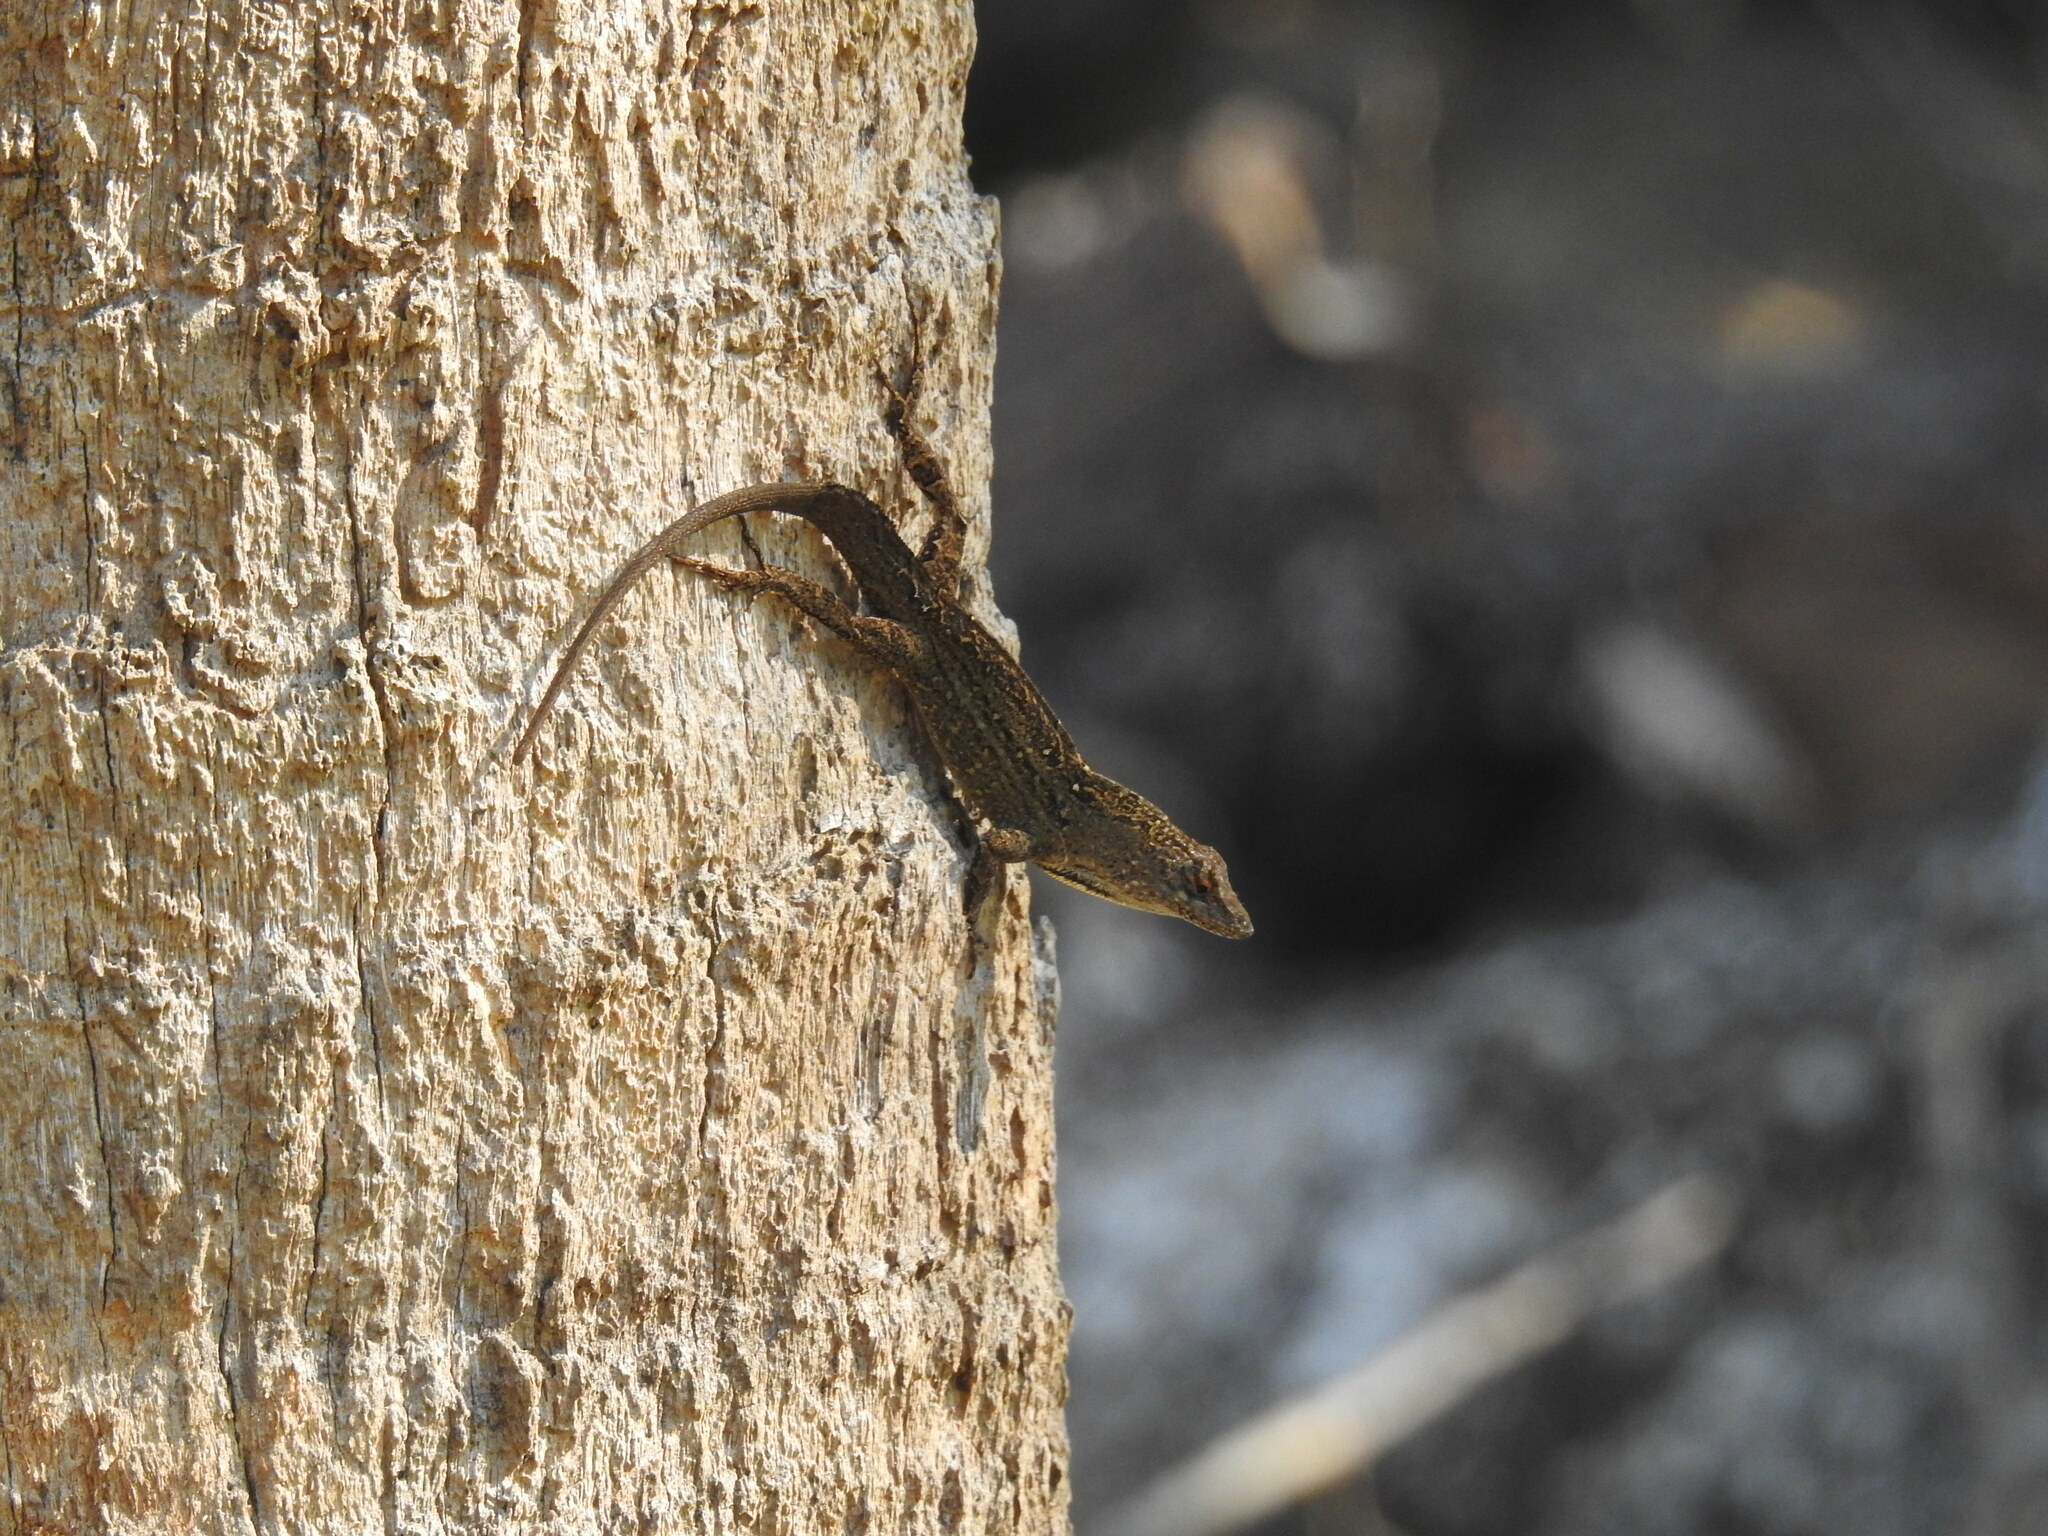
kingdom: Animalia
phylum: Chordata
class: Squamata
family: Dactyloidae
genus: Anolis
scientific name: Anolis sagrei
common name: Brown anole
